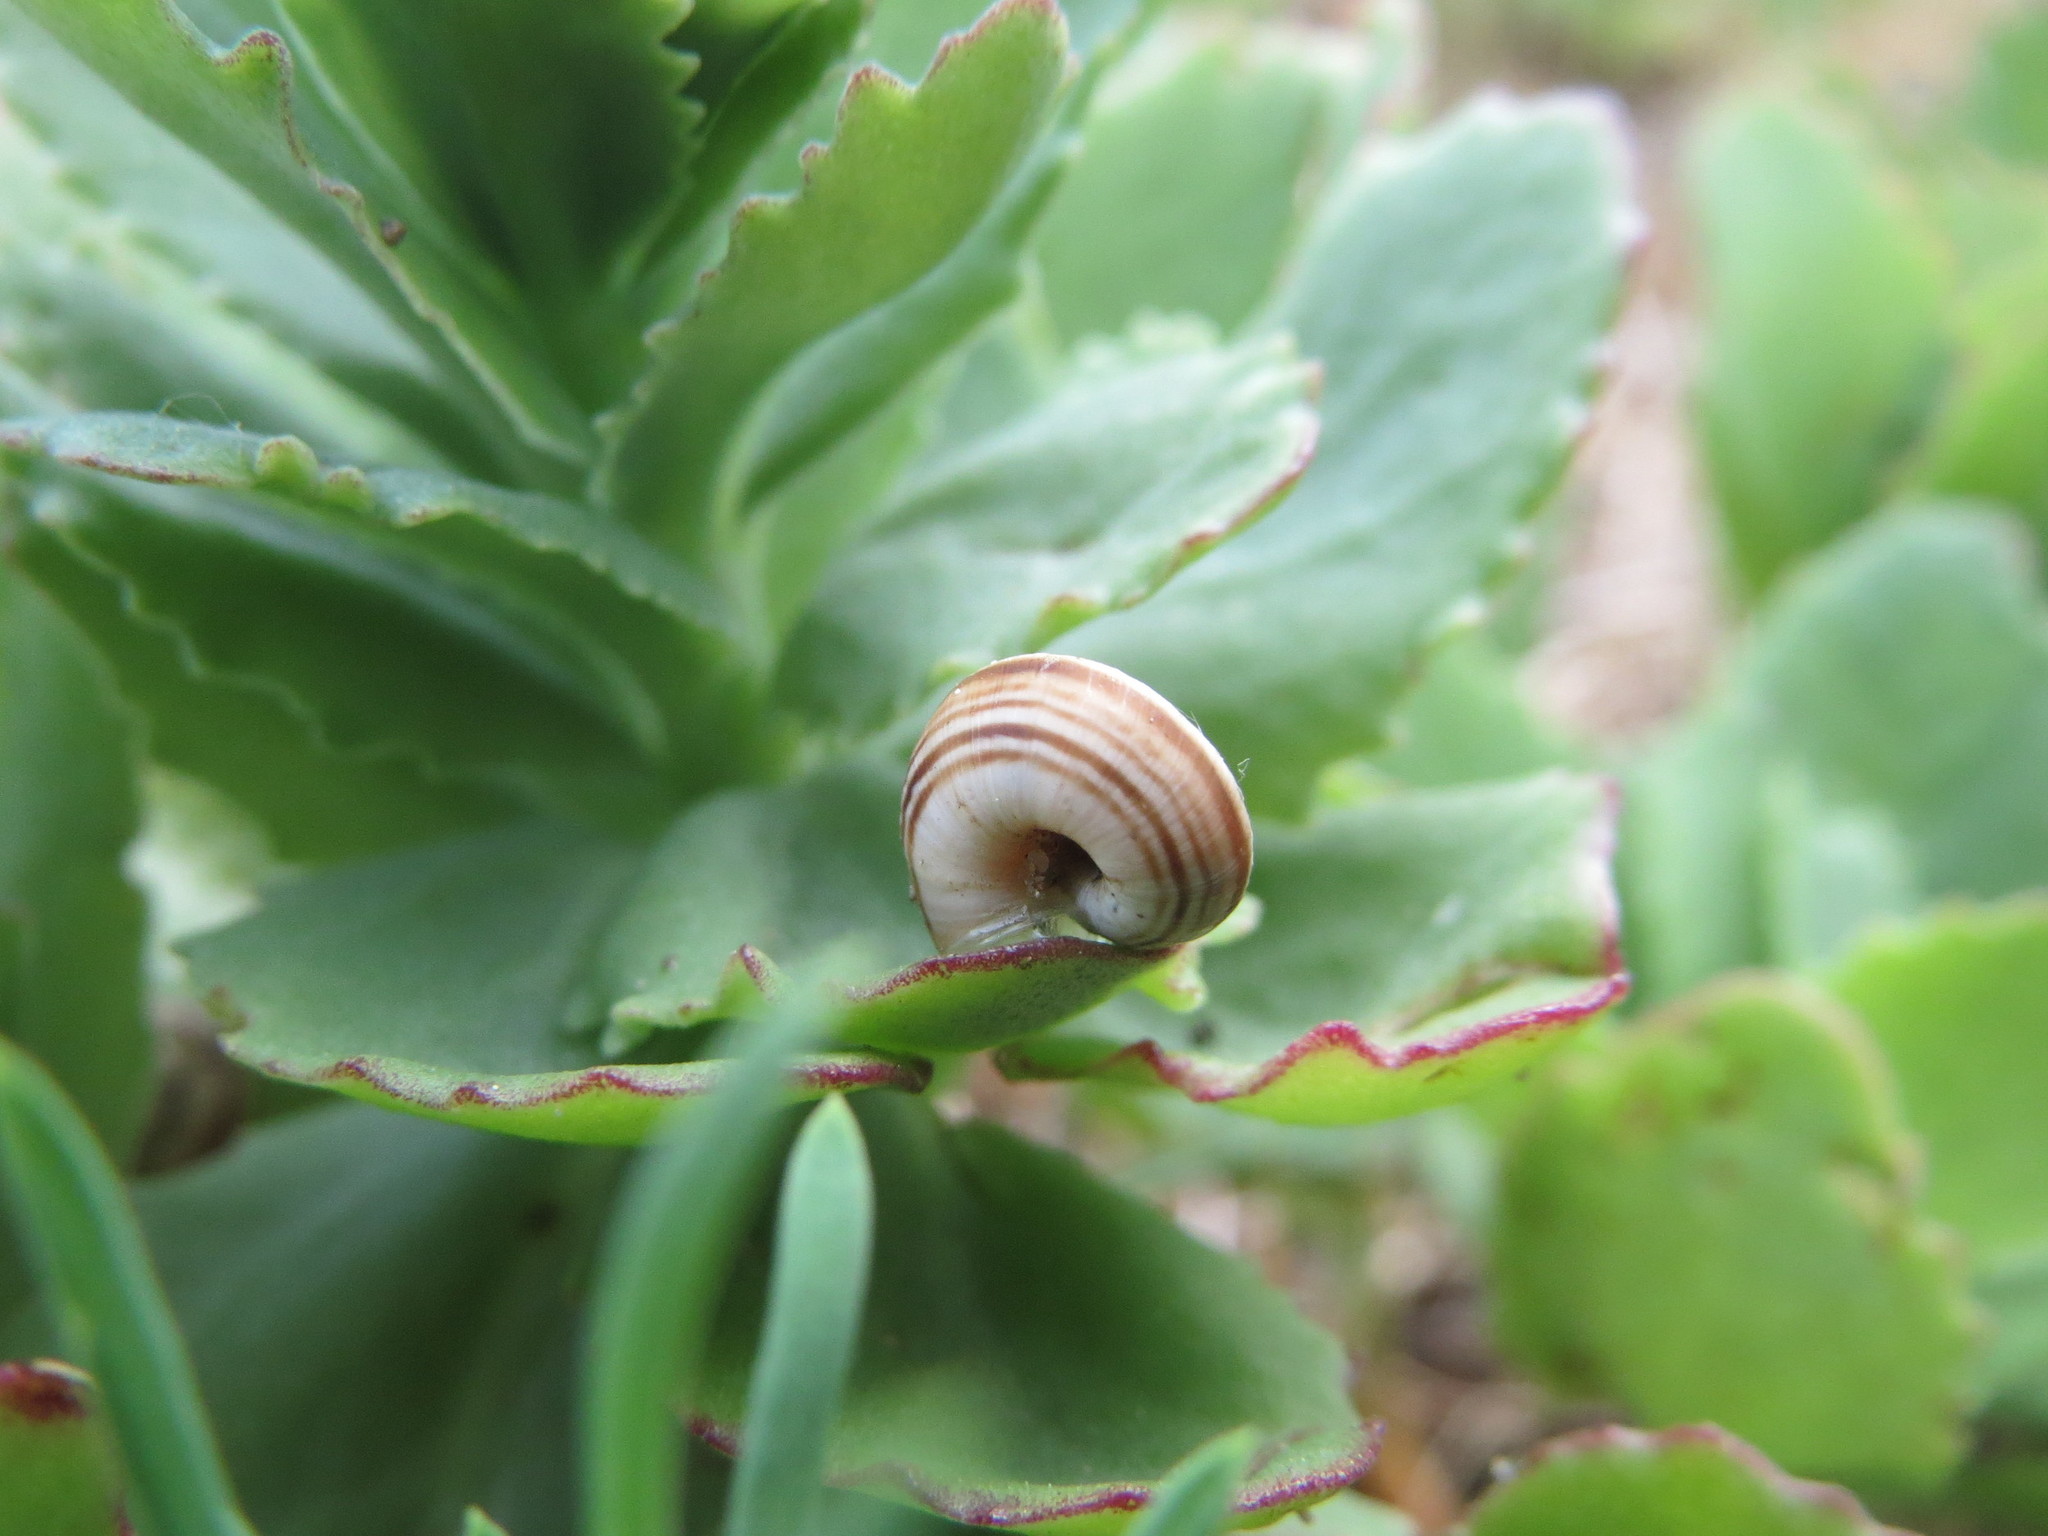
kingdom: Animalia
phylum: Mollusca
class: Gastropoda
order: Stylommatophora
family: Geomitridae
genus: Helicella
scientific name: Helicella itala
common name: Heath snail
